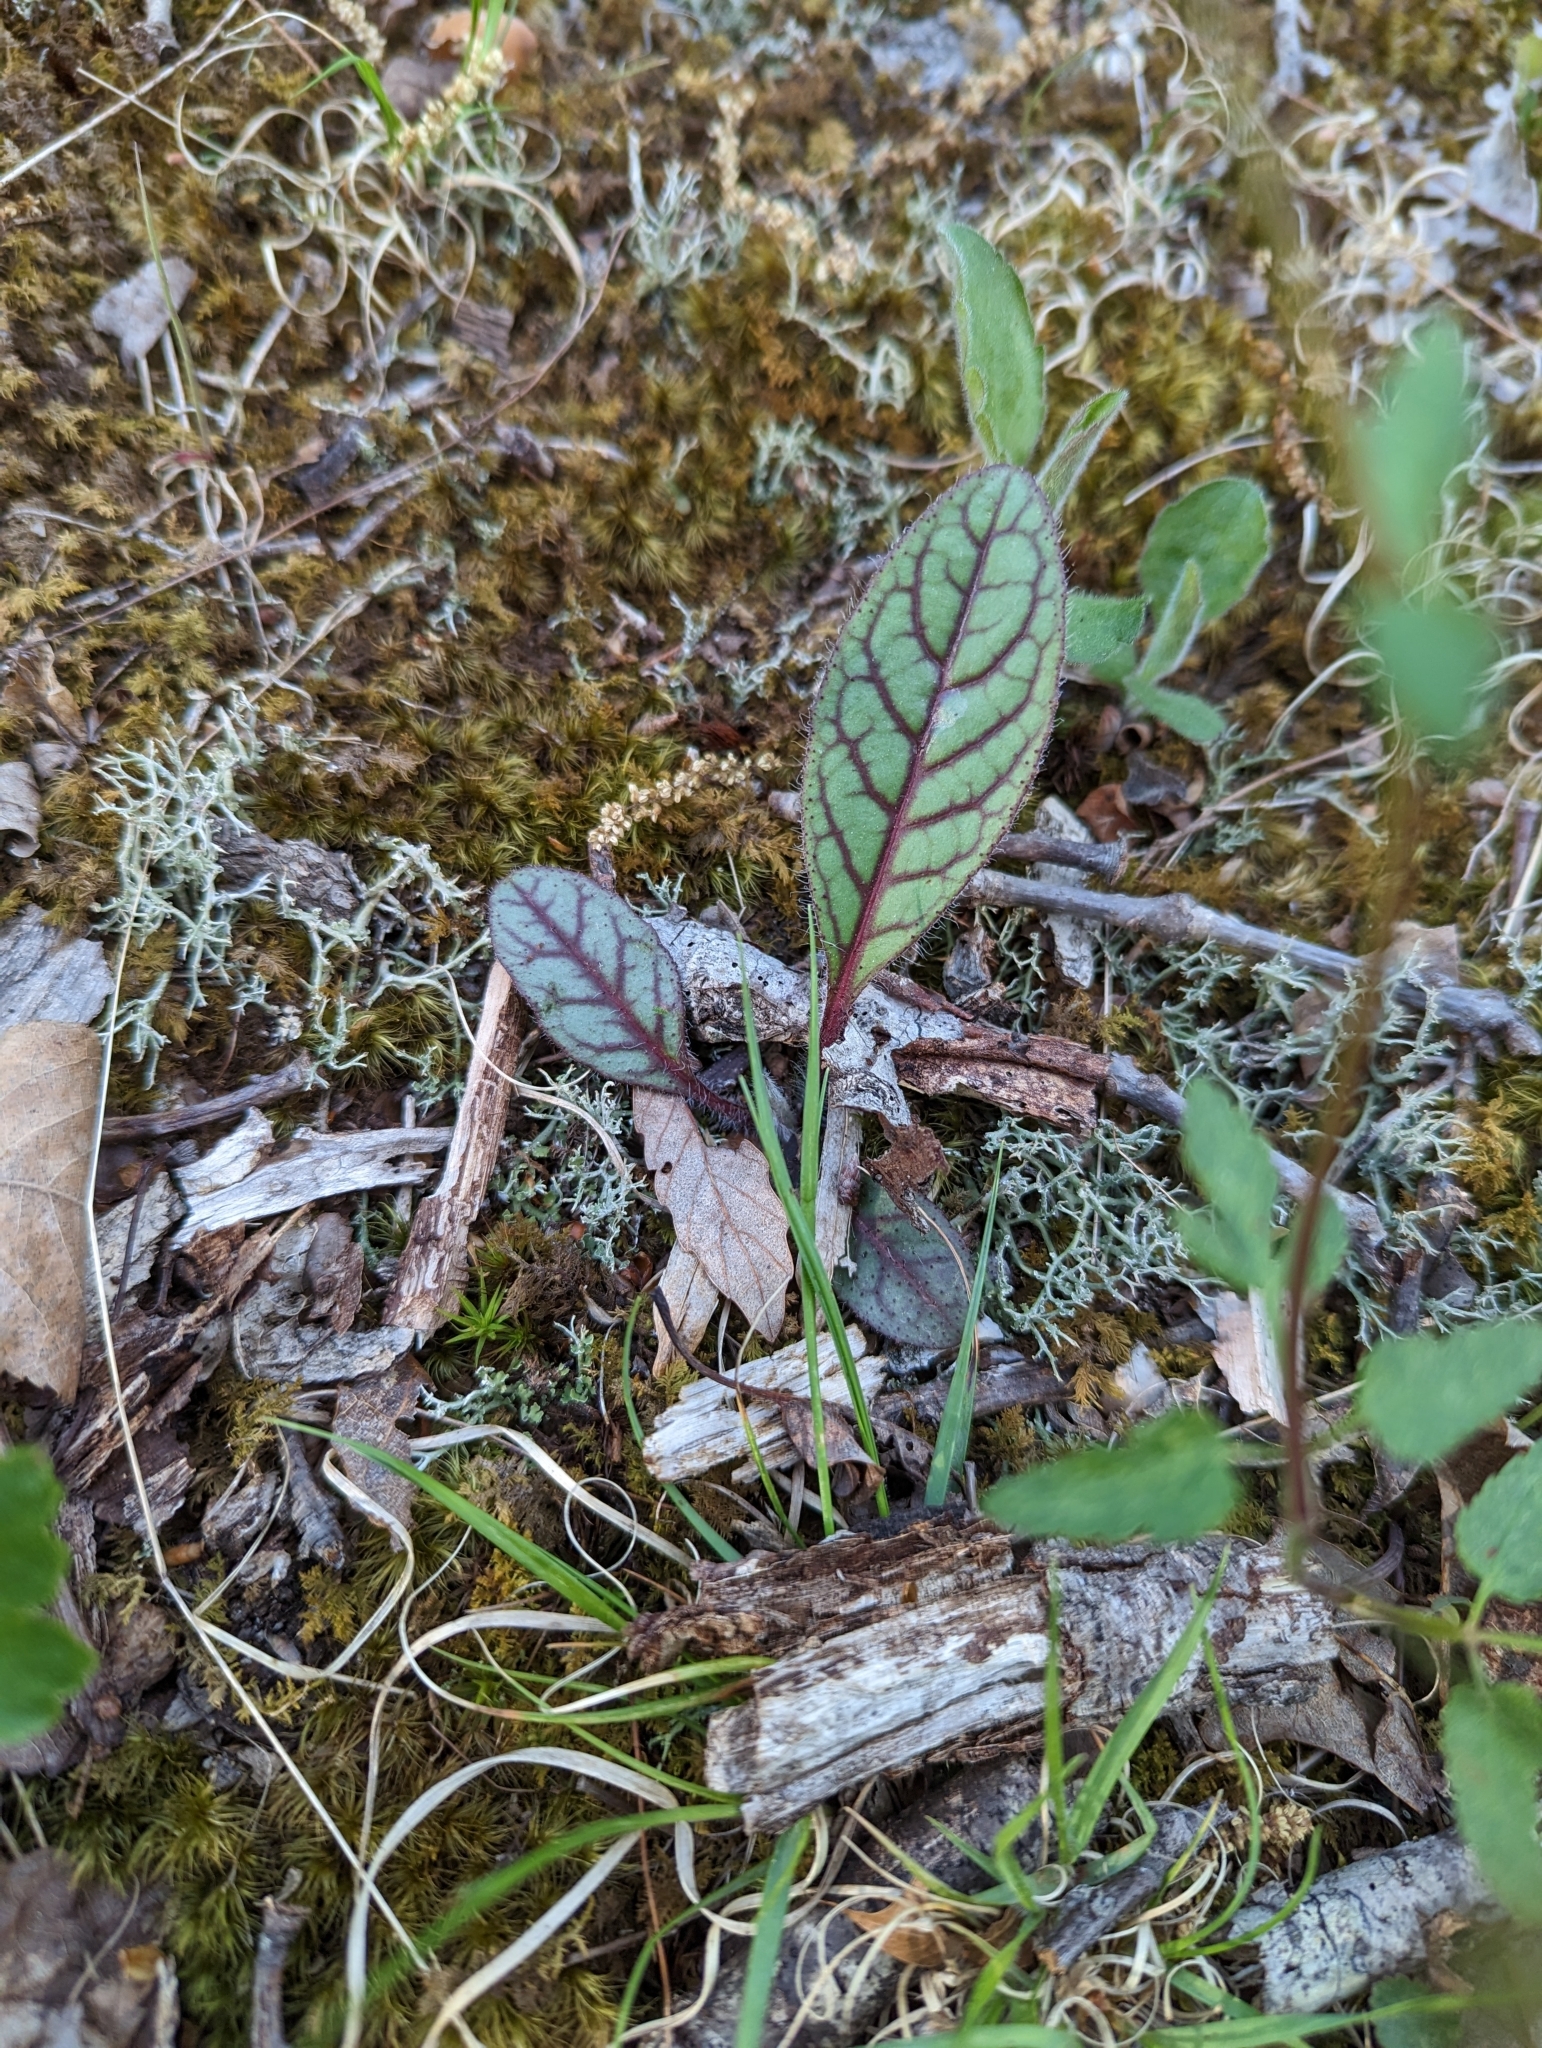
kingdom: Plantae
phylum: Tracheophyta
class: Magnoliopsida
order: Asterales
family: Asteraceae
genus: Hieracium
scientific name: Hieracium venosum
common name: Rattlesnake hawkweed
